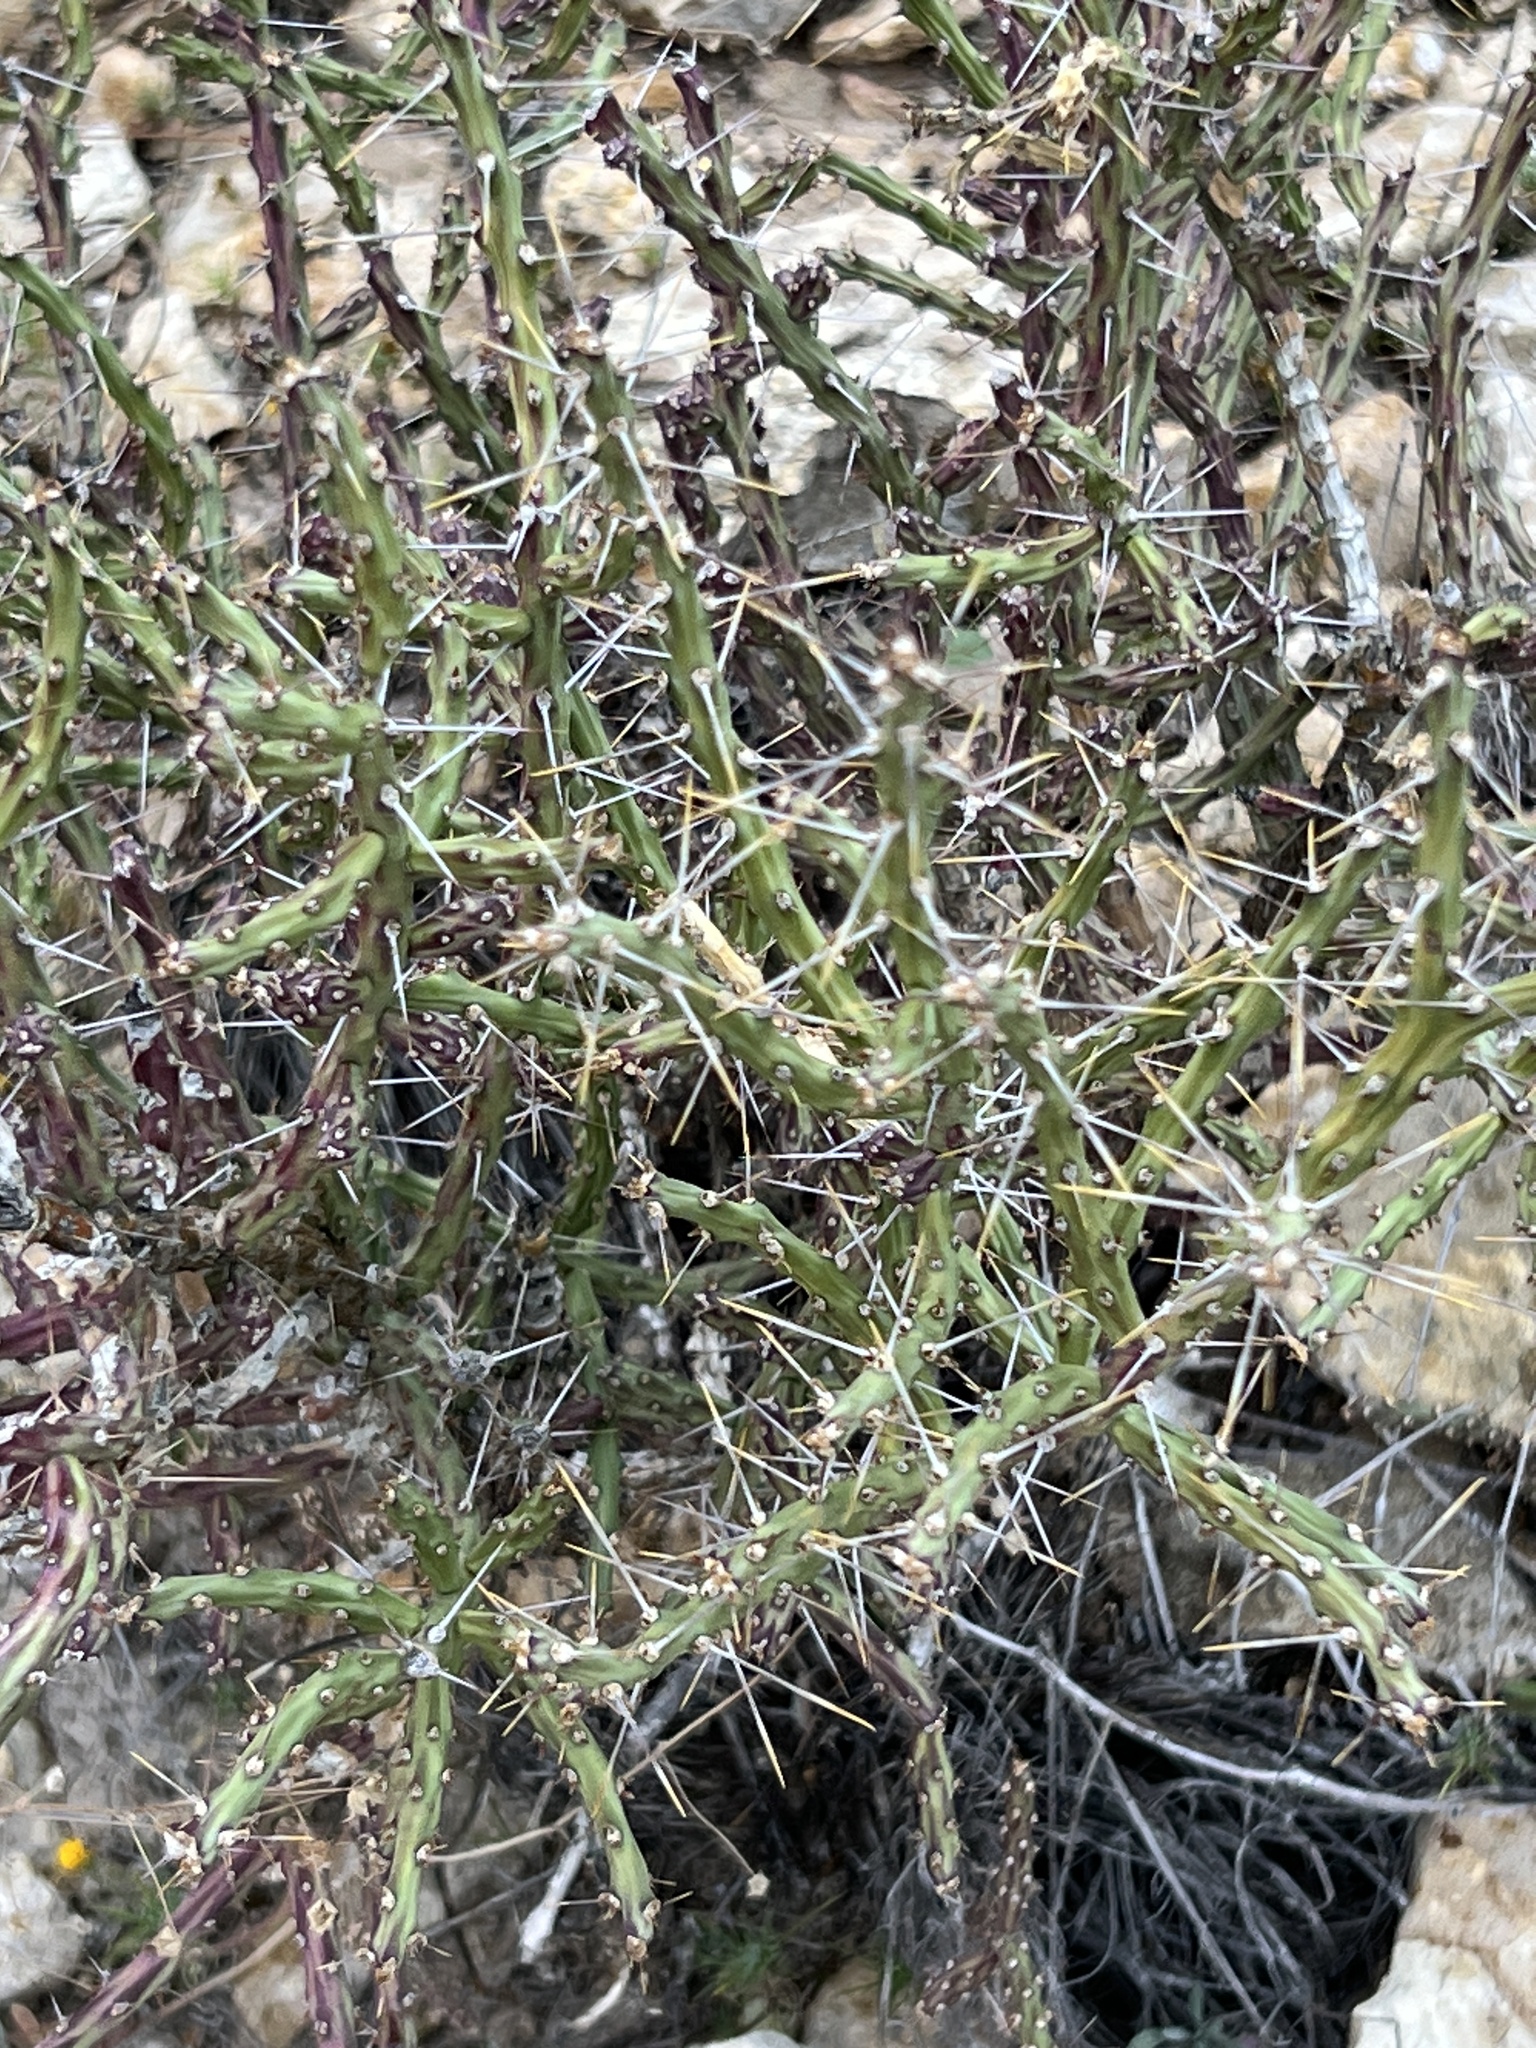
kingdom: Plantae
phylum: Tracheophyta
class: Magnoliopsida
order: Caryophyllales
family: Cactaceae
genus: Cylindropuntia
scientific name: Cylindropuntia leptocaulis
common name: Christmas cactus
